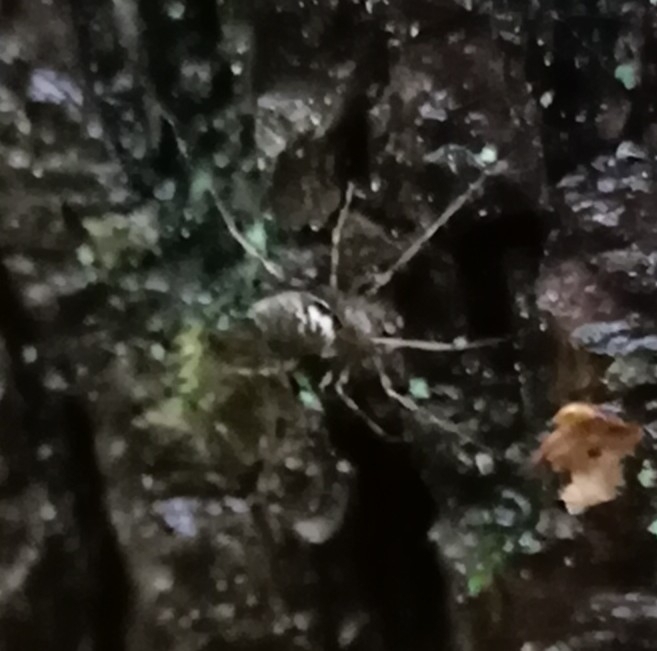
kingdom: Animalia
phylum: Arthropoda
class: Arachnida
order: Araneae
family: Linyphiidae
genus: Drapetisca
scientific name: Drapetisca socialis
